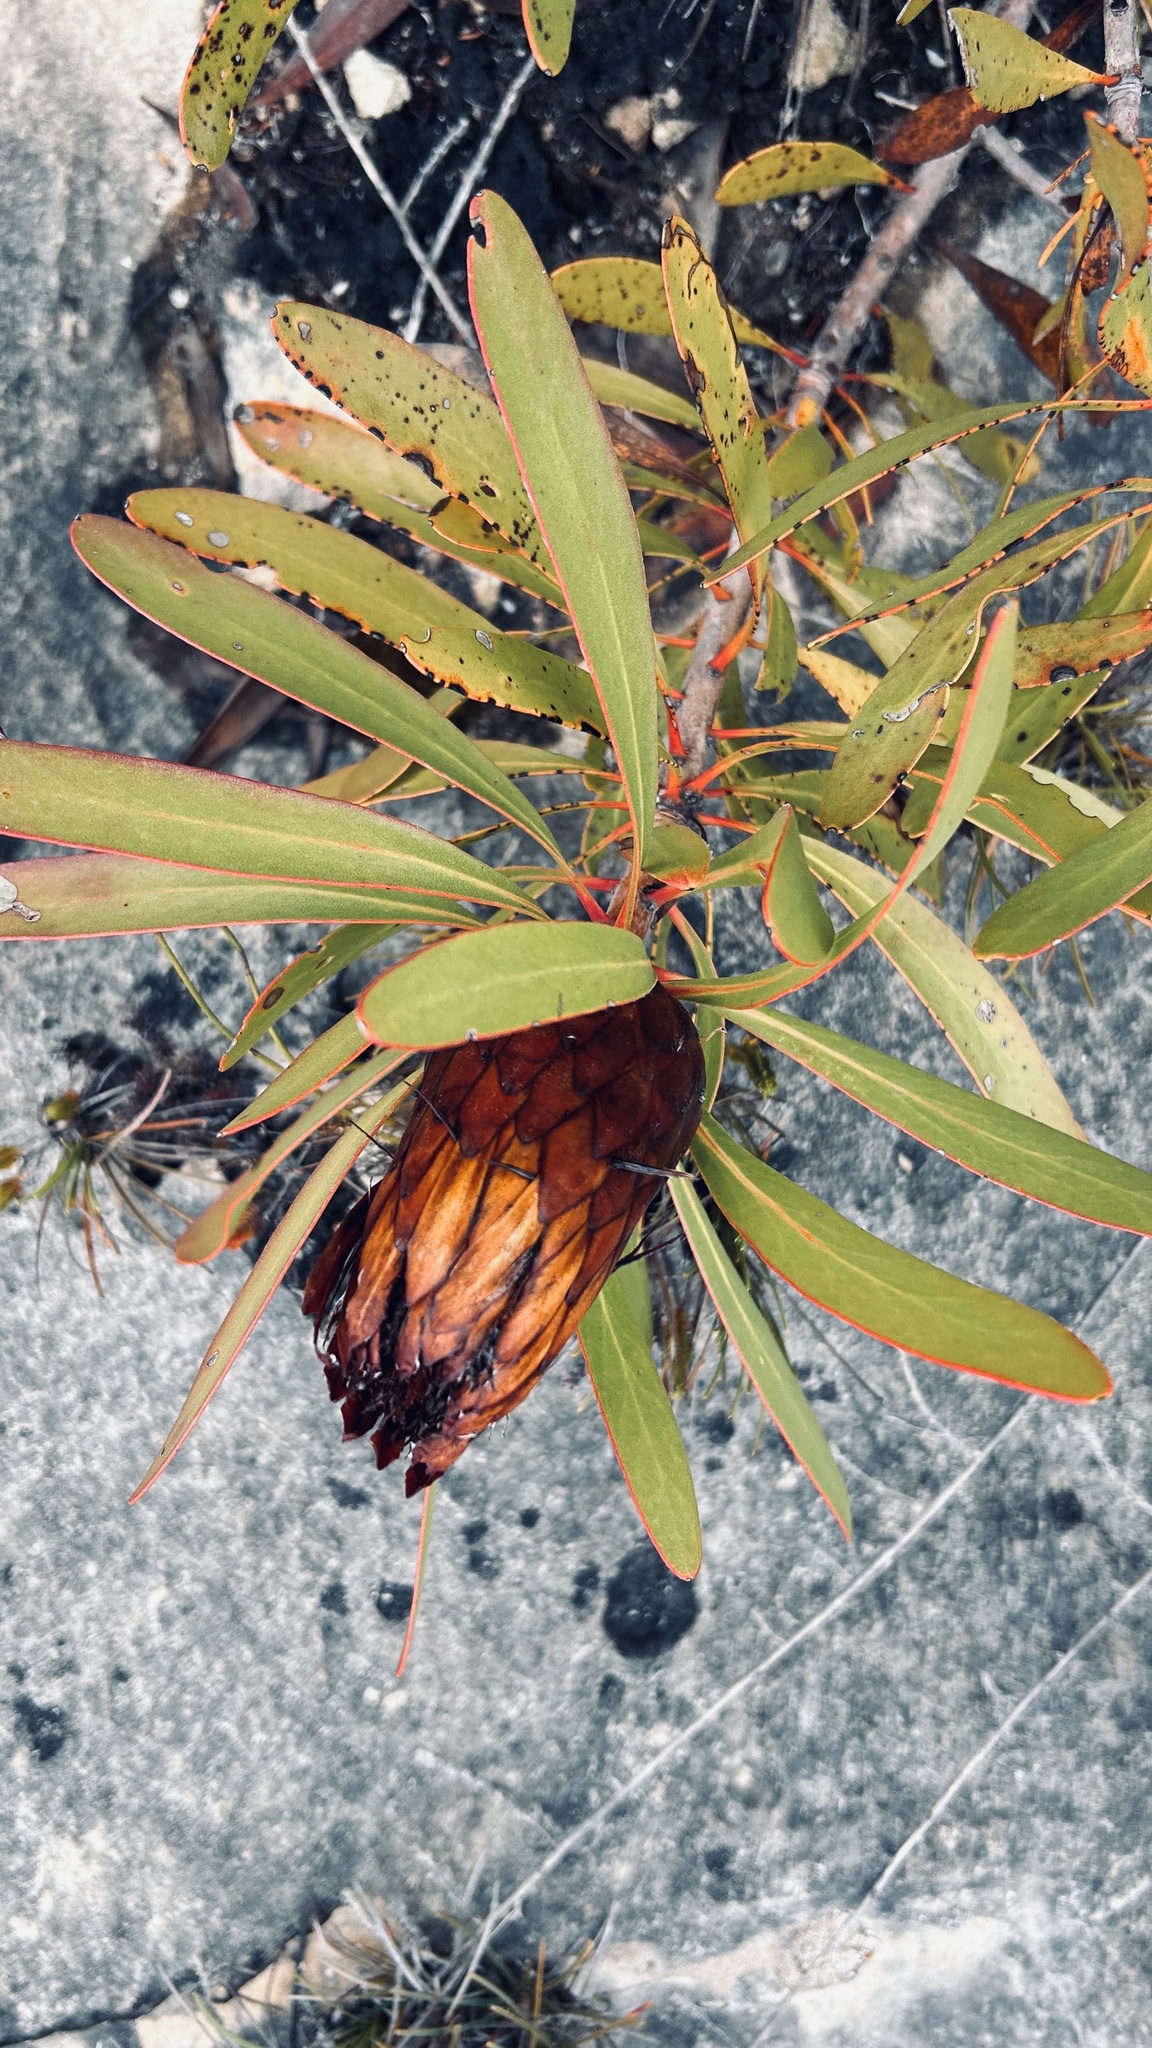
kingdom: Plantae
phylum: Tracheophyta
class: Magnoliopsida
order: Proteales
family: Proteaceae
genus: Protea
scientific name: Protea obtusifolia
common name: Bredasdorp sugarbush
